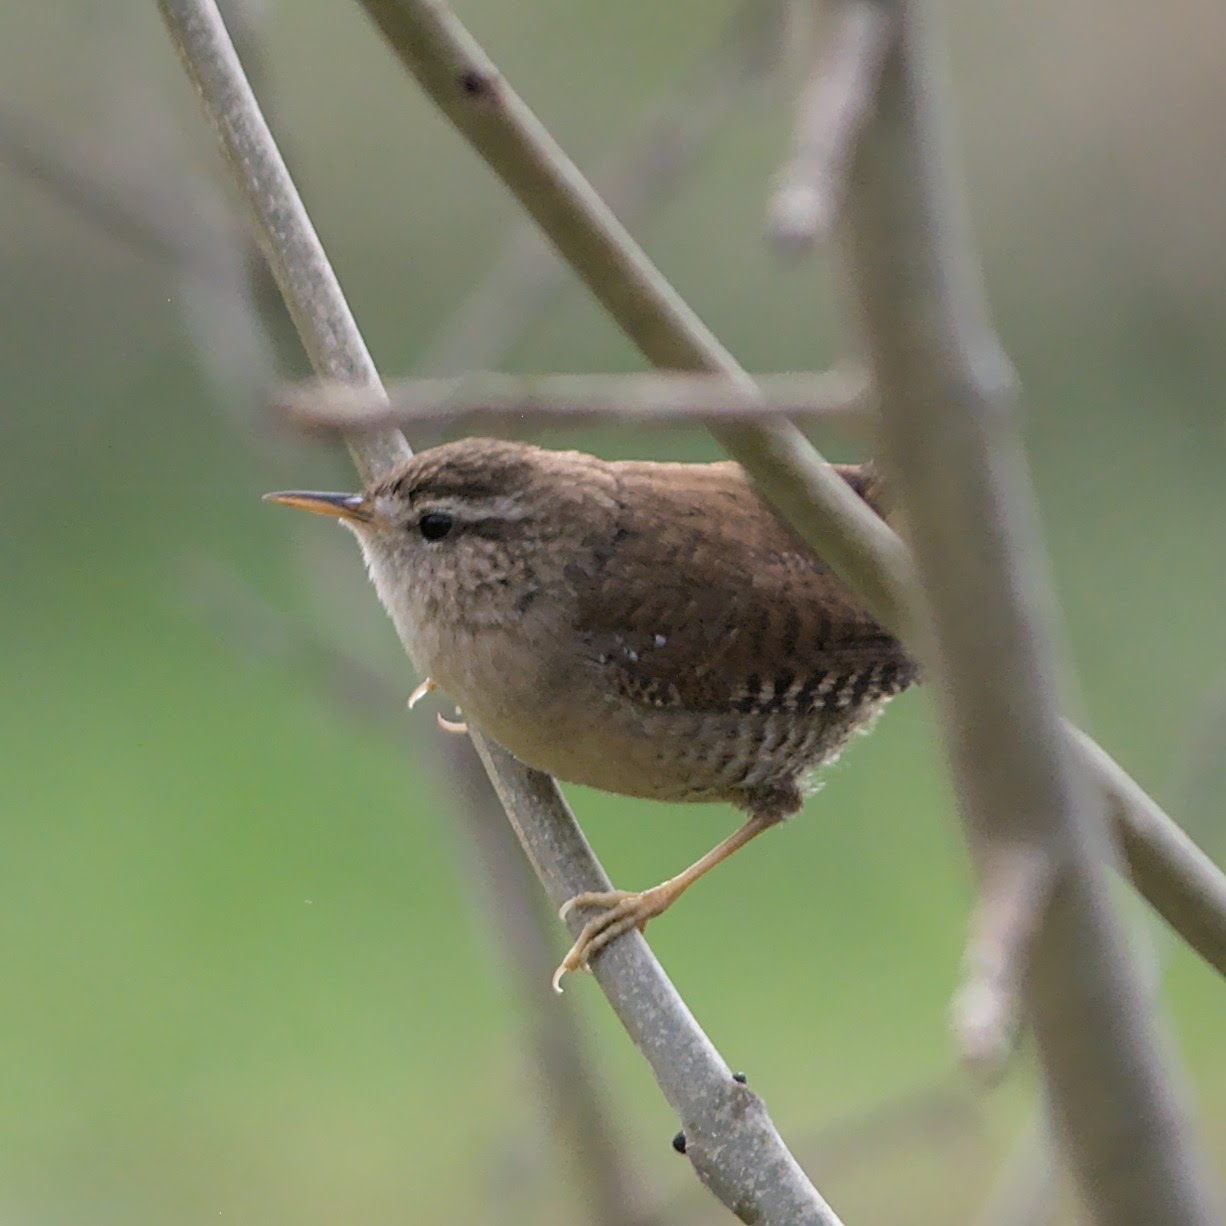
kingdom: Animalia
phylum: Chordata
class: Aves
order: Passeriformes
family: Troglodytidae
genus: Troglodytes
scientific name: Troglodytes troglodytes
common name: Eurasian wren
